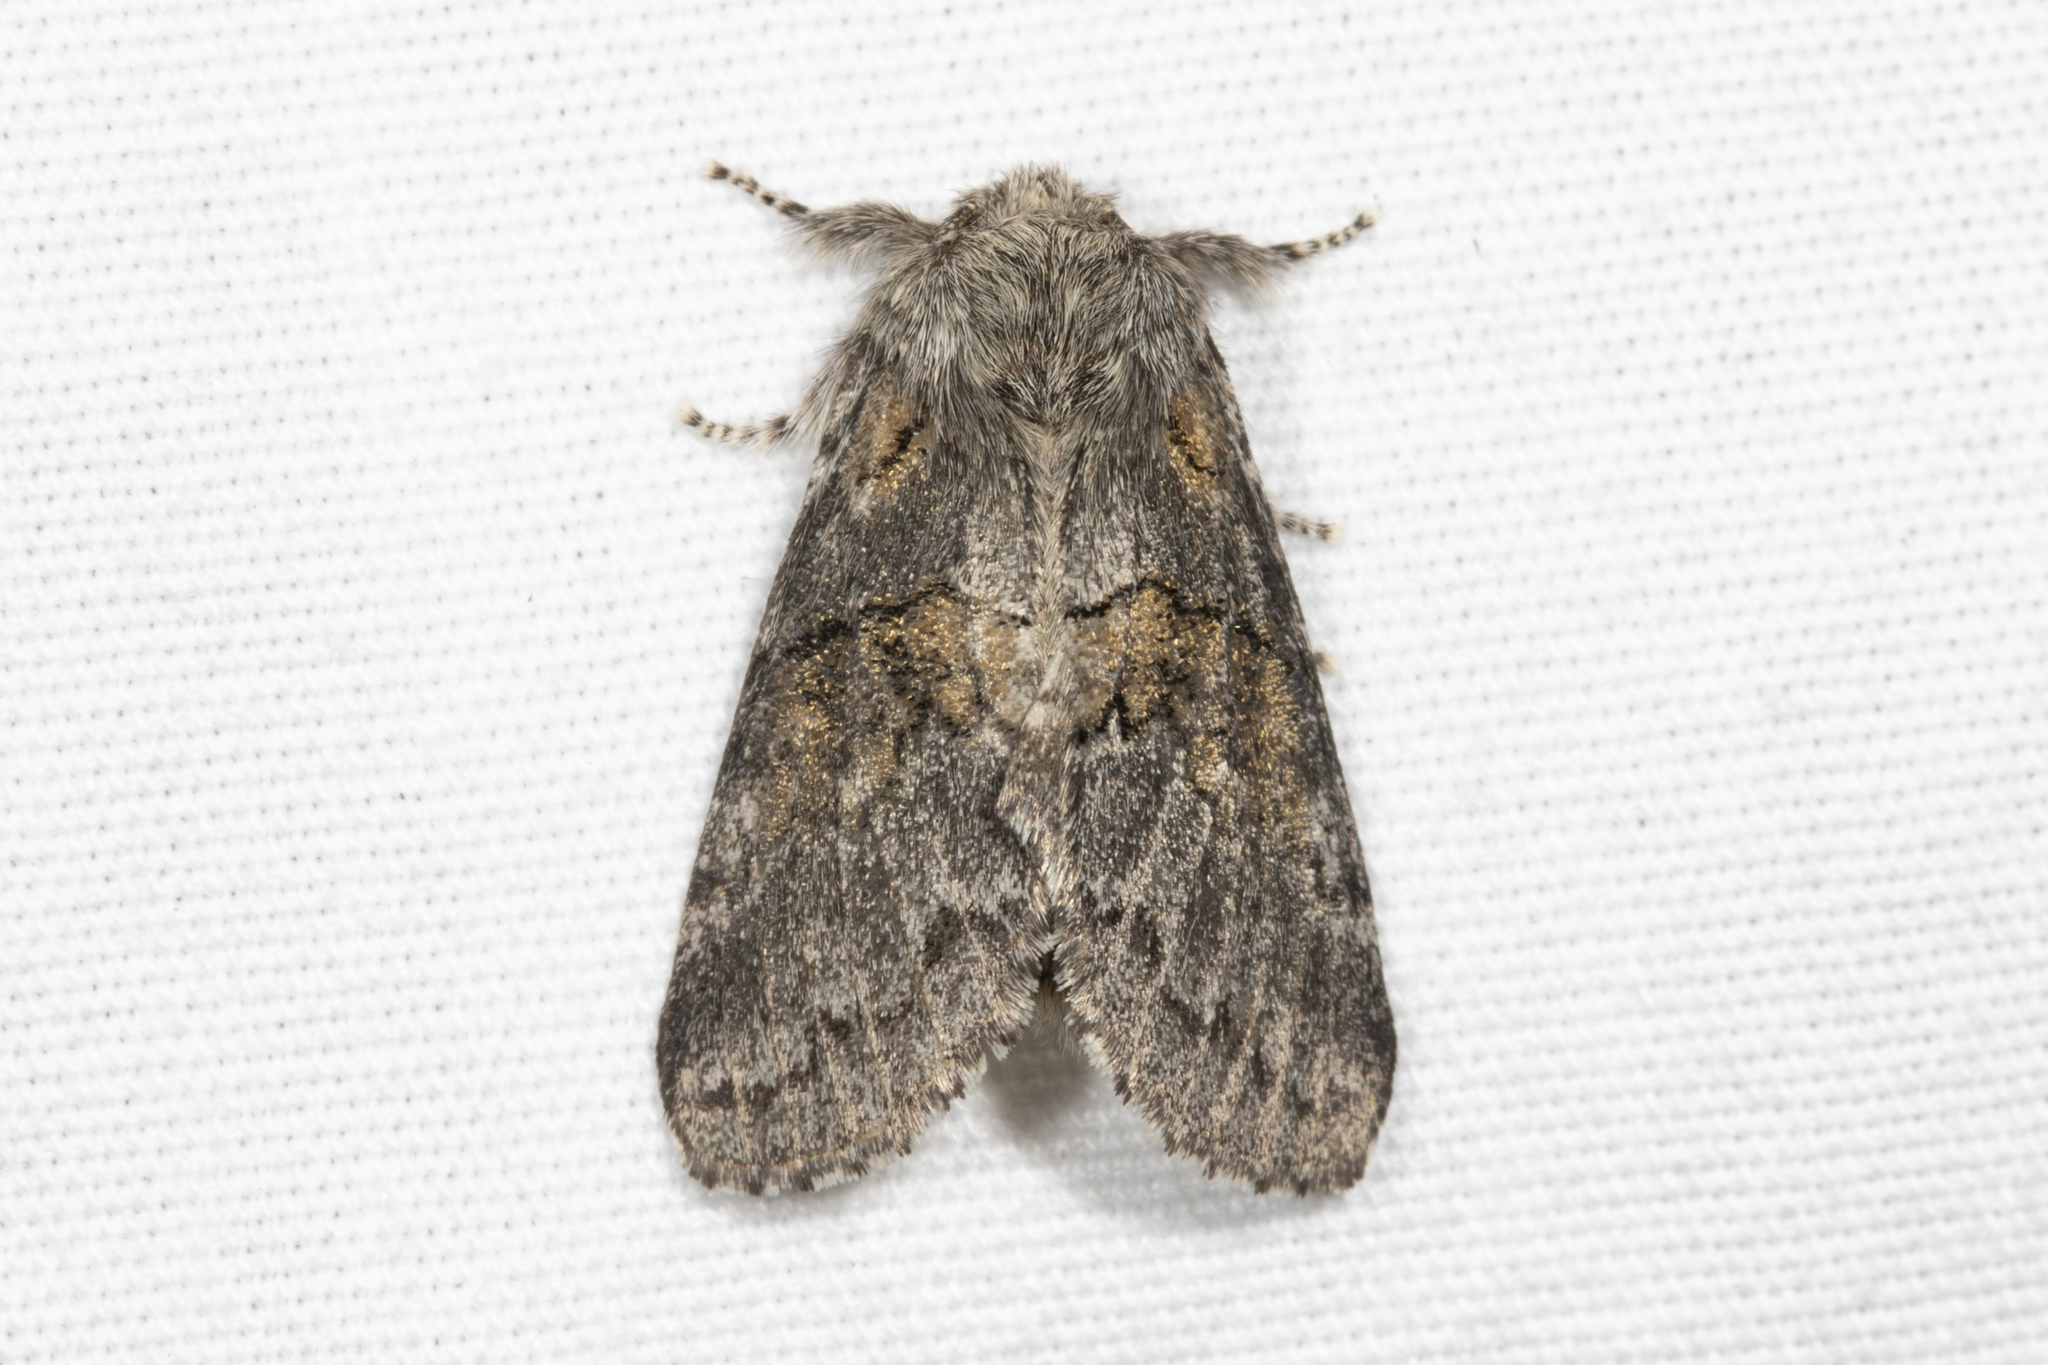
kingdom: Animalia
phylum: Arthropoda
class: Insecta
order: Lepidoptera
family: Notodontidae
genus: Gluphisia
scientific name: Gluphisia septentrionis
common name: Common gluphisia
